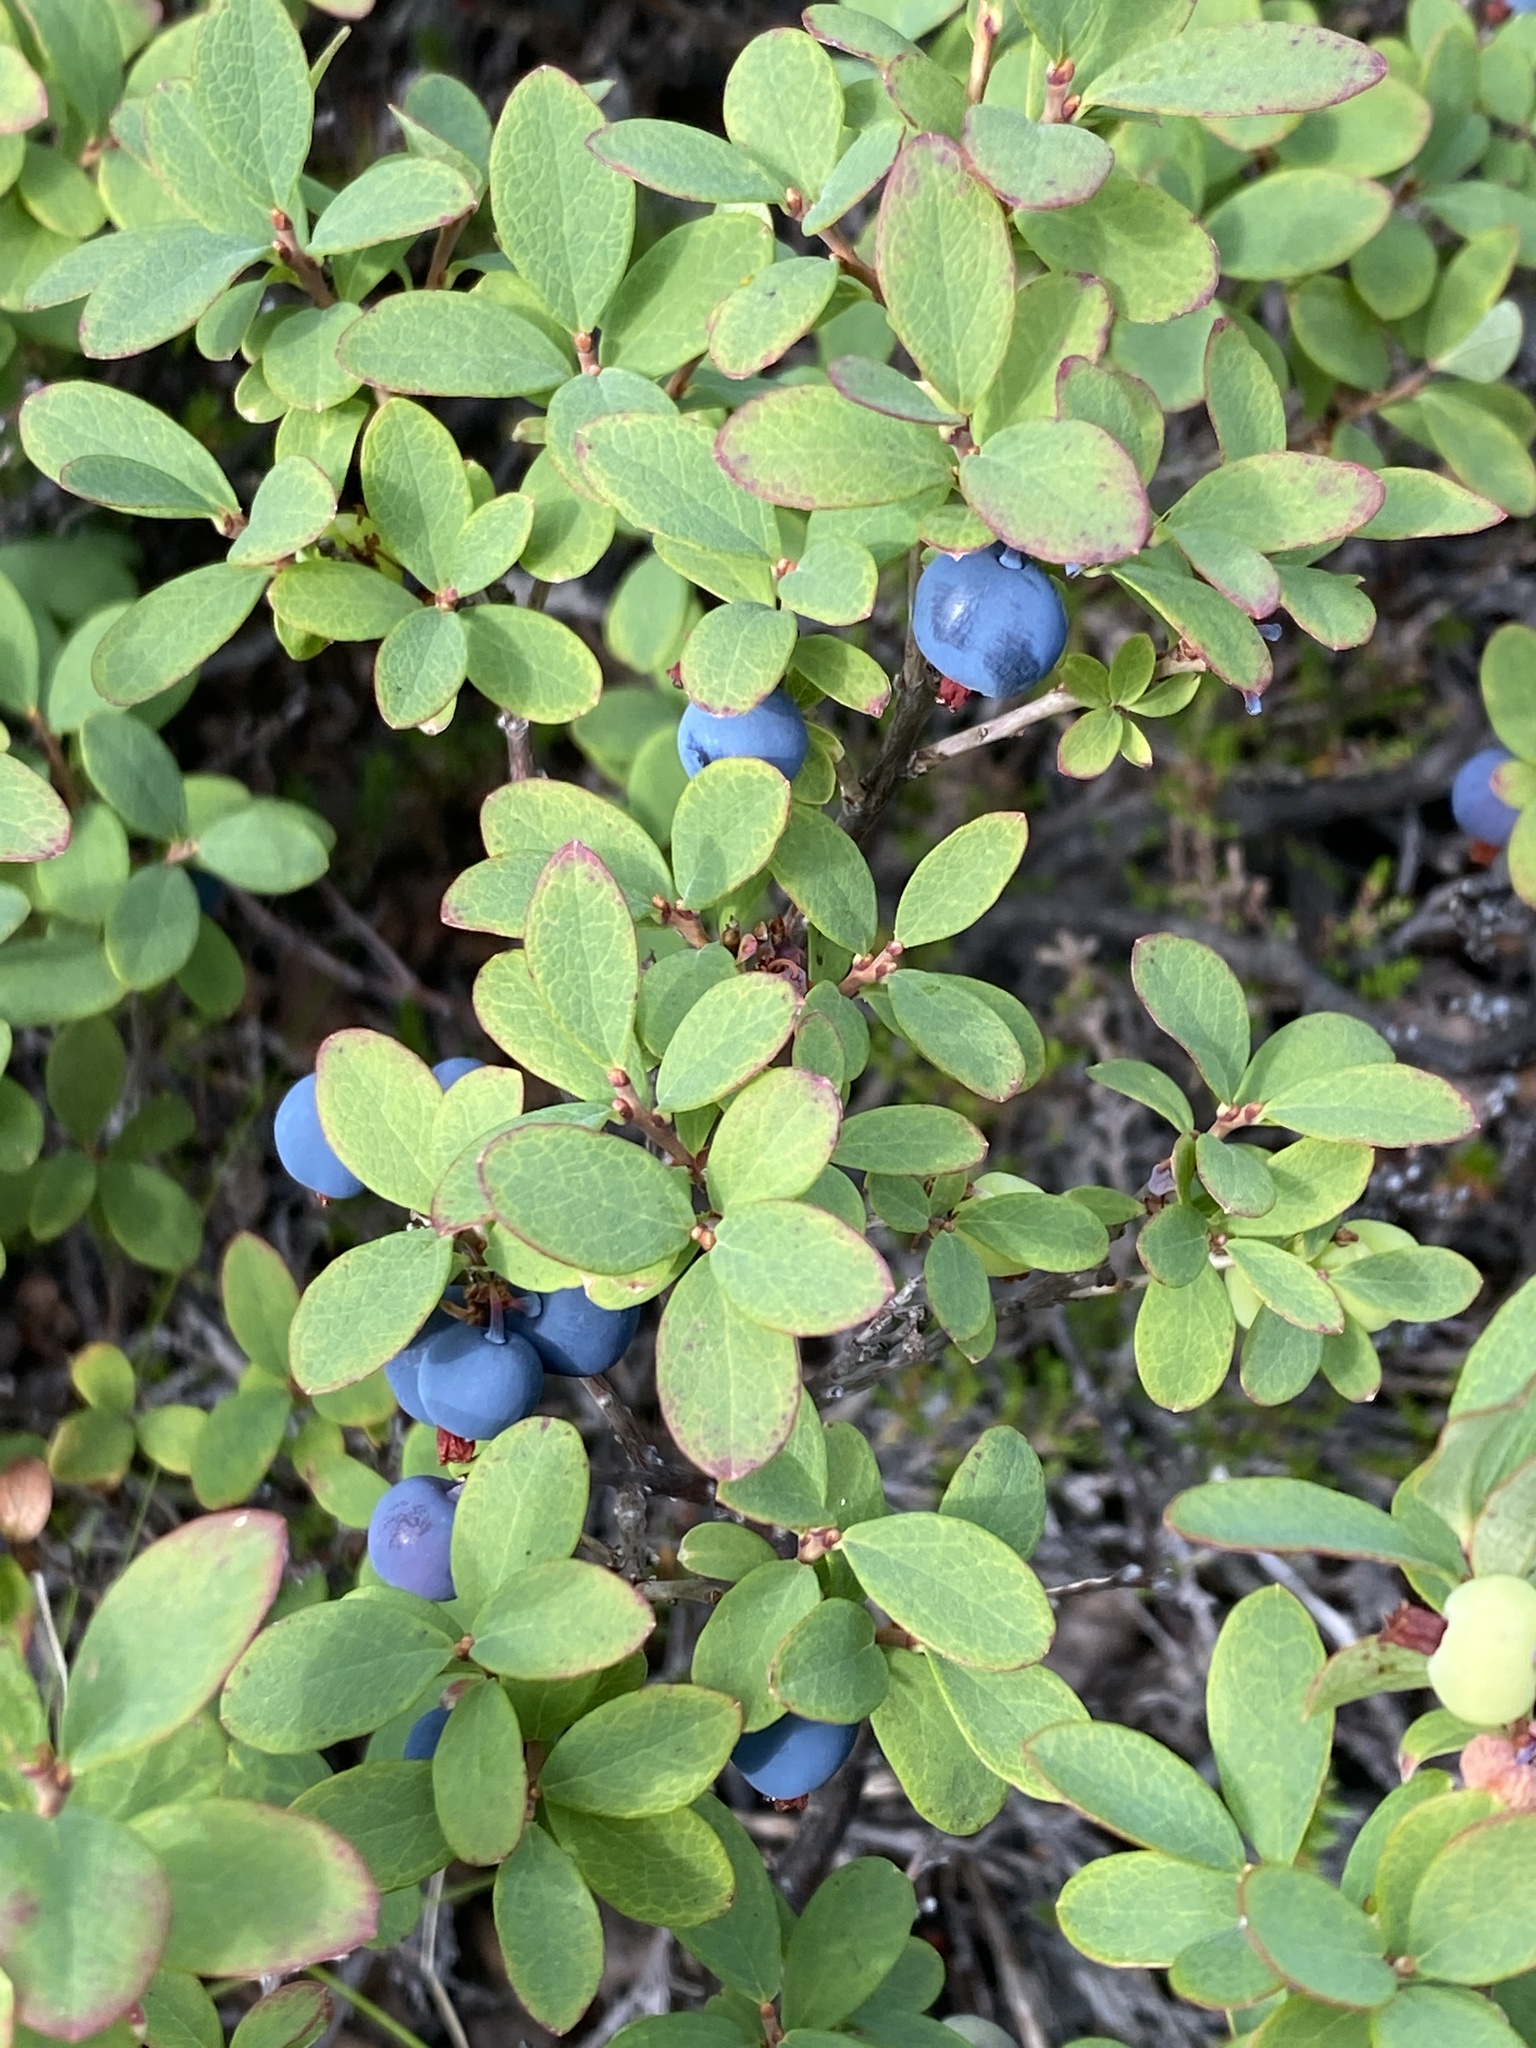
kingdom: Plantae
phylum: Tracheophyta
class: Magnoliopsida
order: Ericales
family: Ericaceae
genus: Vaccinium
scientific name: Vaccinium uliginosum
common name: Bog bilberry
